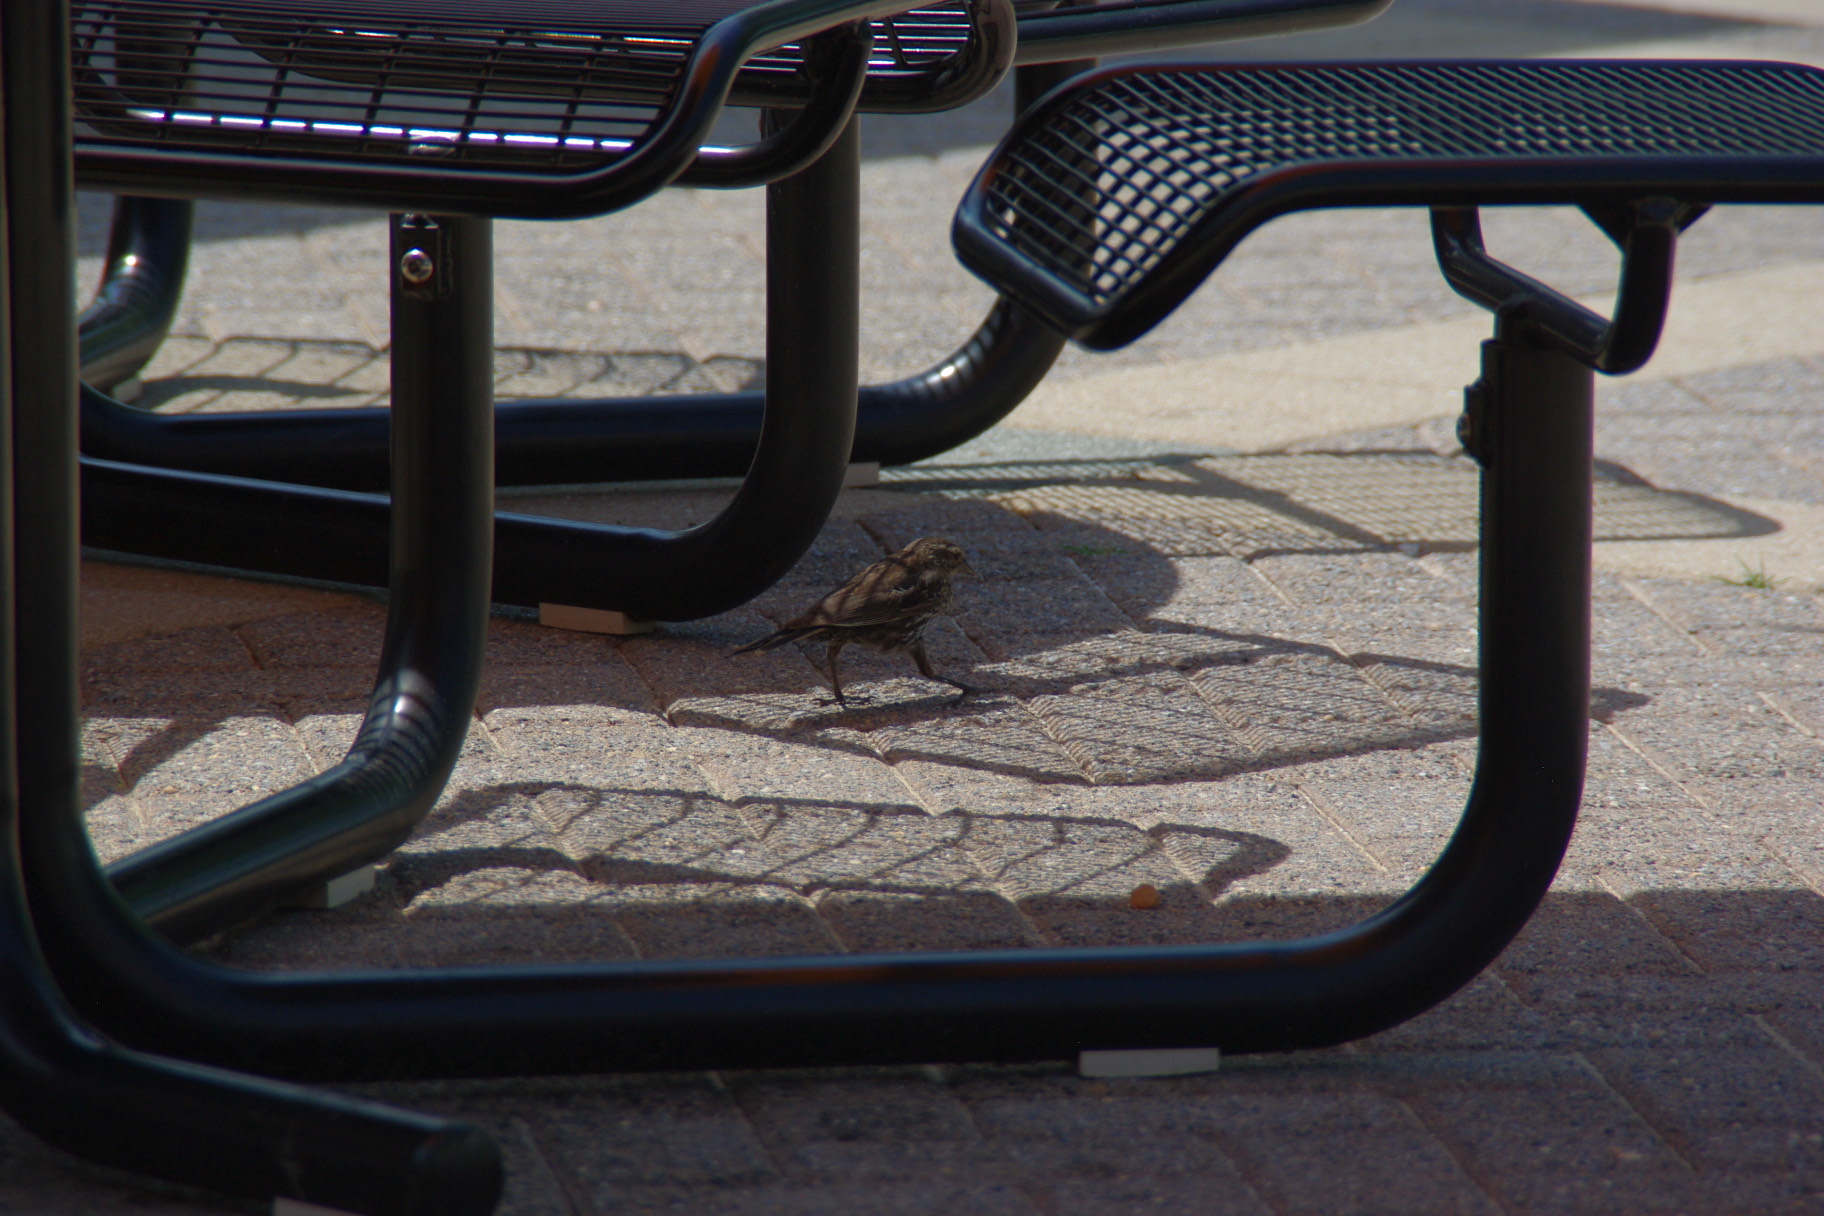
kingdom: Animalia
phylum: Chordata
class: Aves
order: Passeriformes
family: Icteridae
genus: Agelaius
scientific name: Agelaius phoeniceus
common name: Red-winged blackbird
